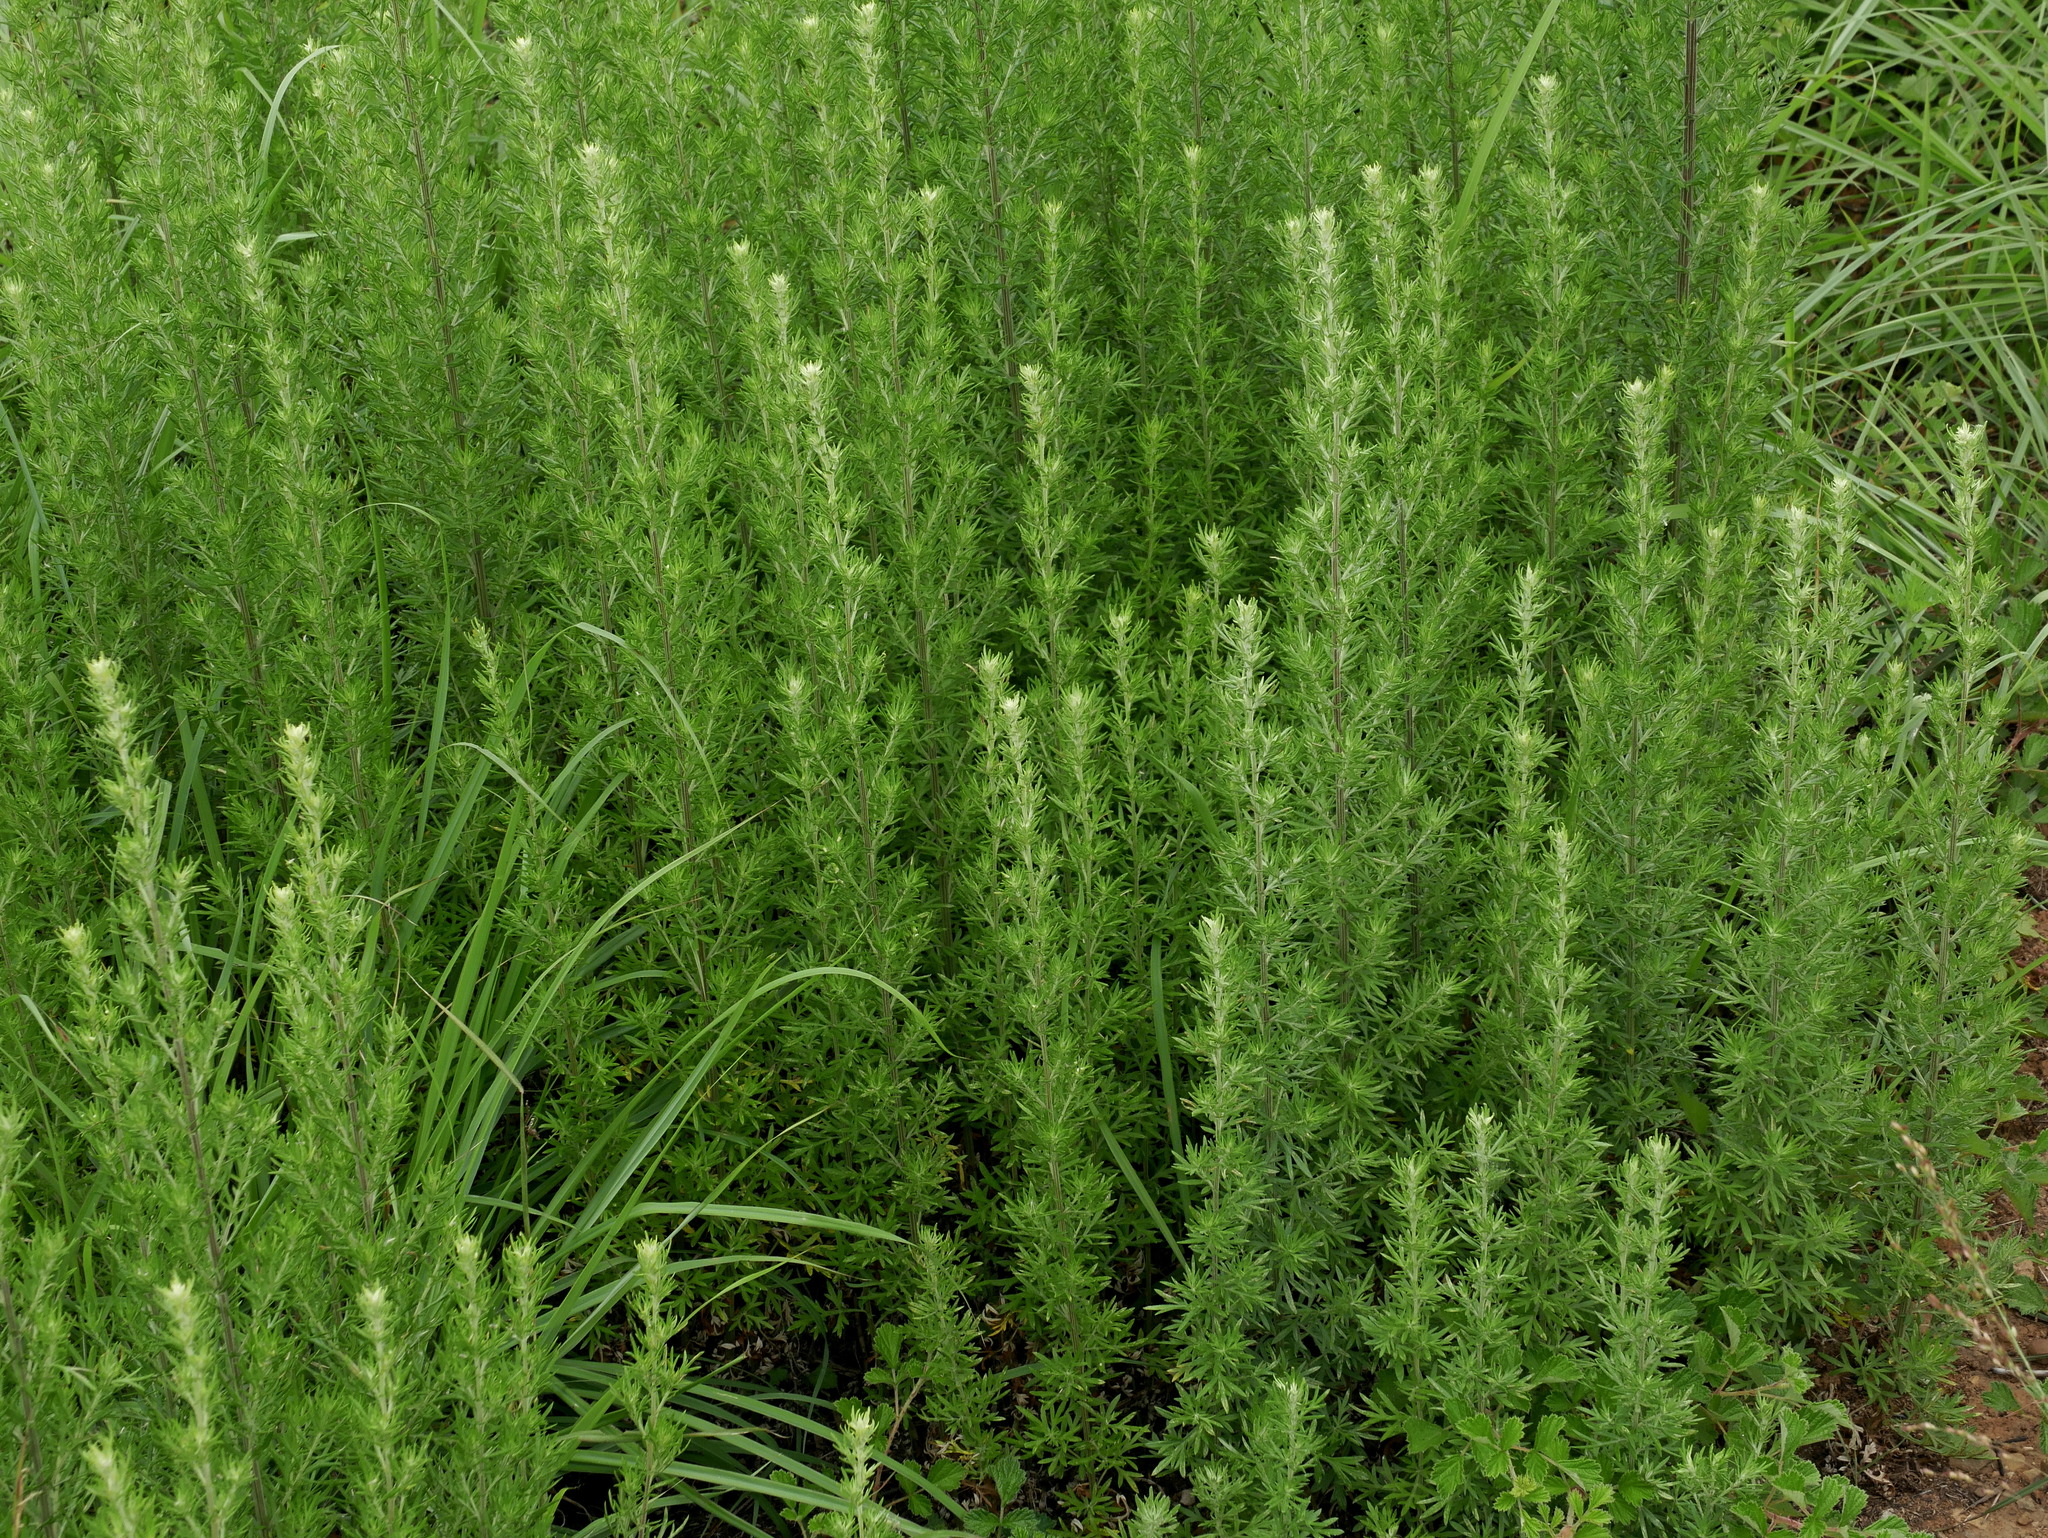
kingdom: Plantae
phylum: Tracheophyta
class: Magnoliopsida
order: Asterales
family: Asteraceae
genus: Artemisia
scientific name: Artemisia lancea
